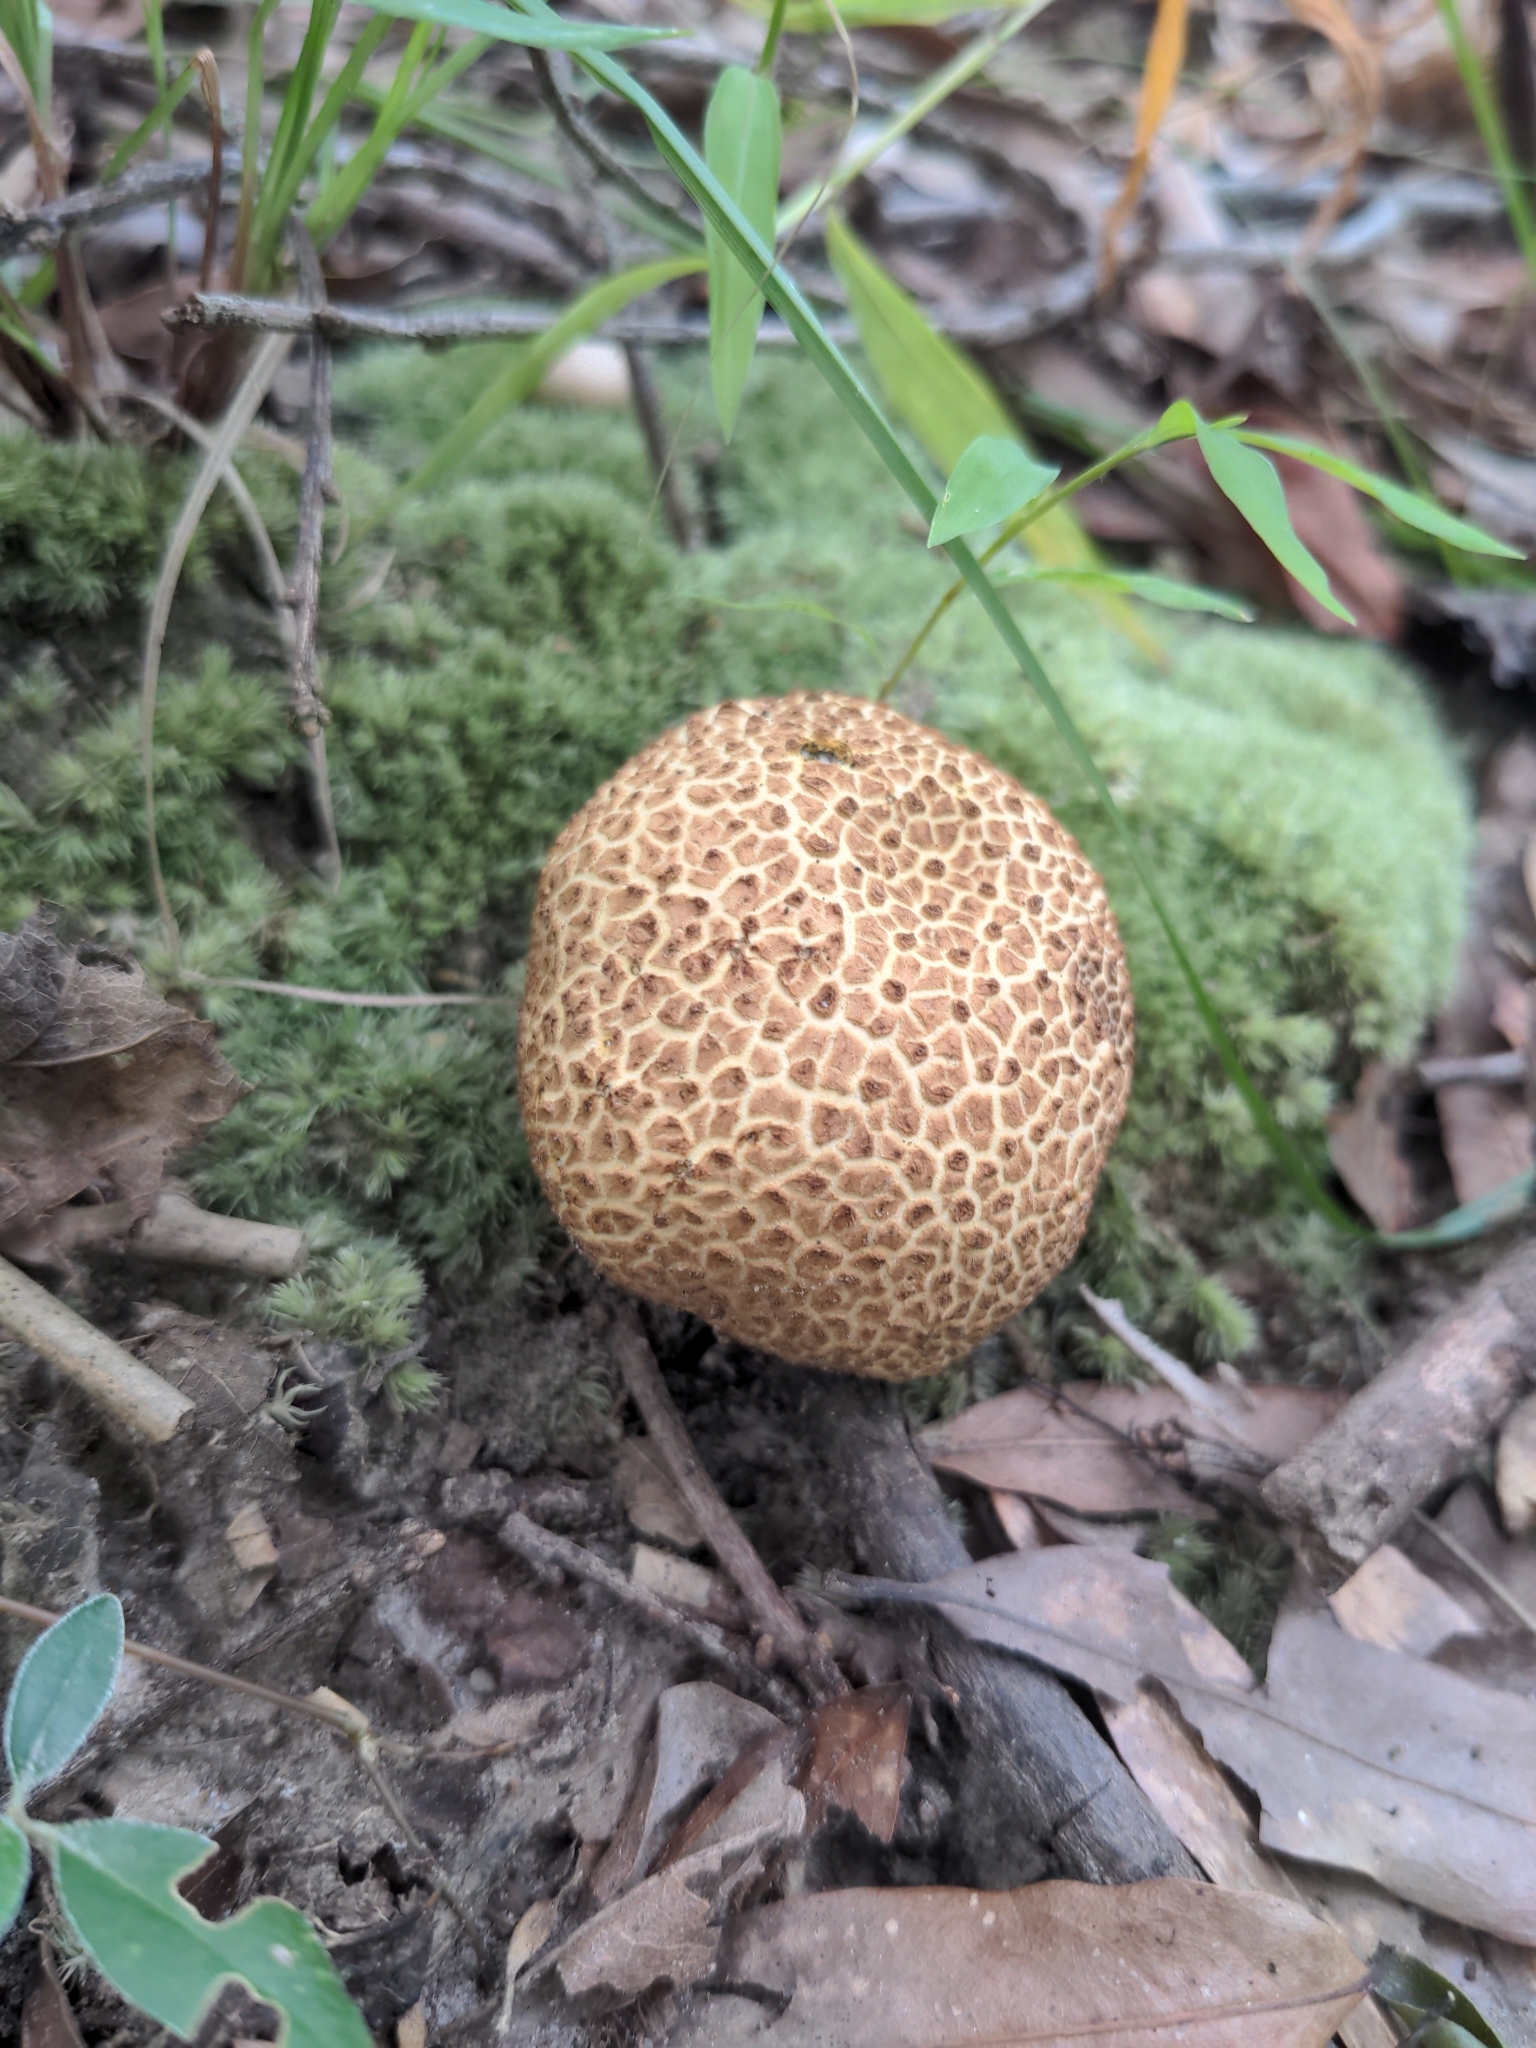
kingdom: Fungi
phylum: Basidiomycota
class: Agaricomycetes
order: Boletales
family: Sclerodermataceae
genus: Scleroderma
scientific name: Scleroderma citrinum
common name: Common earthball
